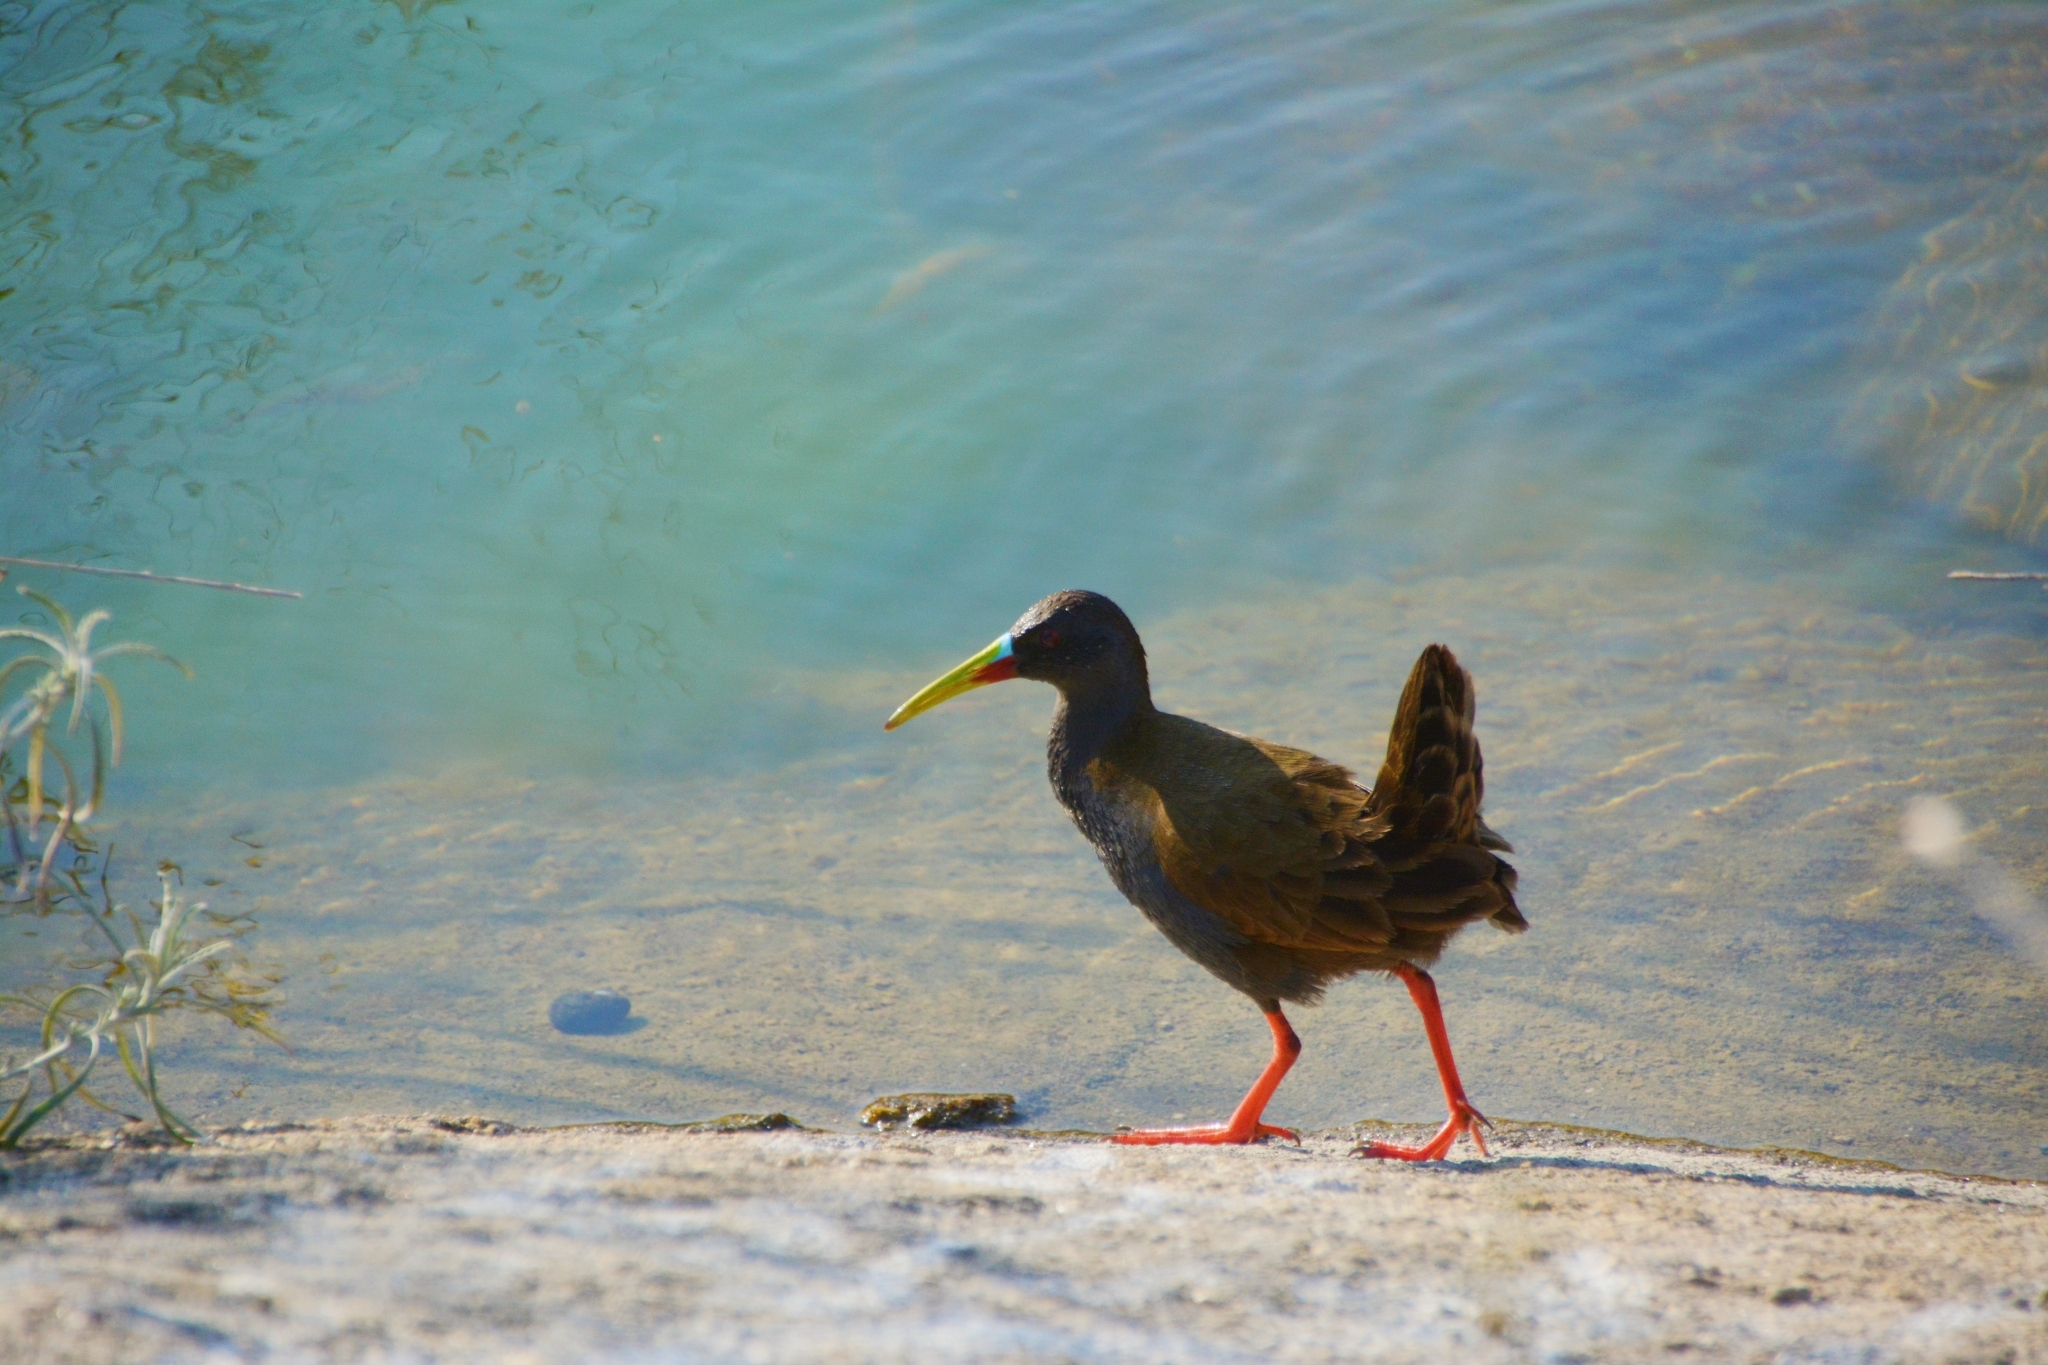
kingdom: Animalia
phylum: Chordata
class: Aves
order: Gruiformes
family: Rallidae
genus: Pardirallus
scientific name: Pardirallus sanguinolentus
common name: Plumbeous rail
